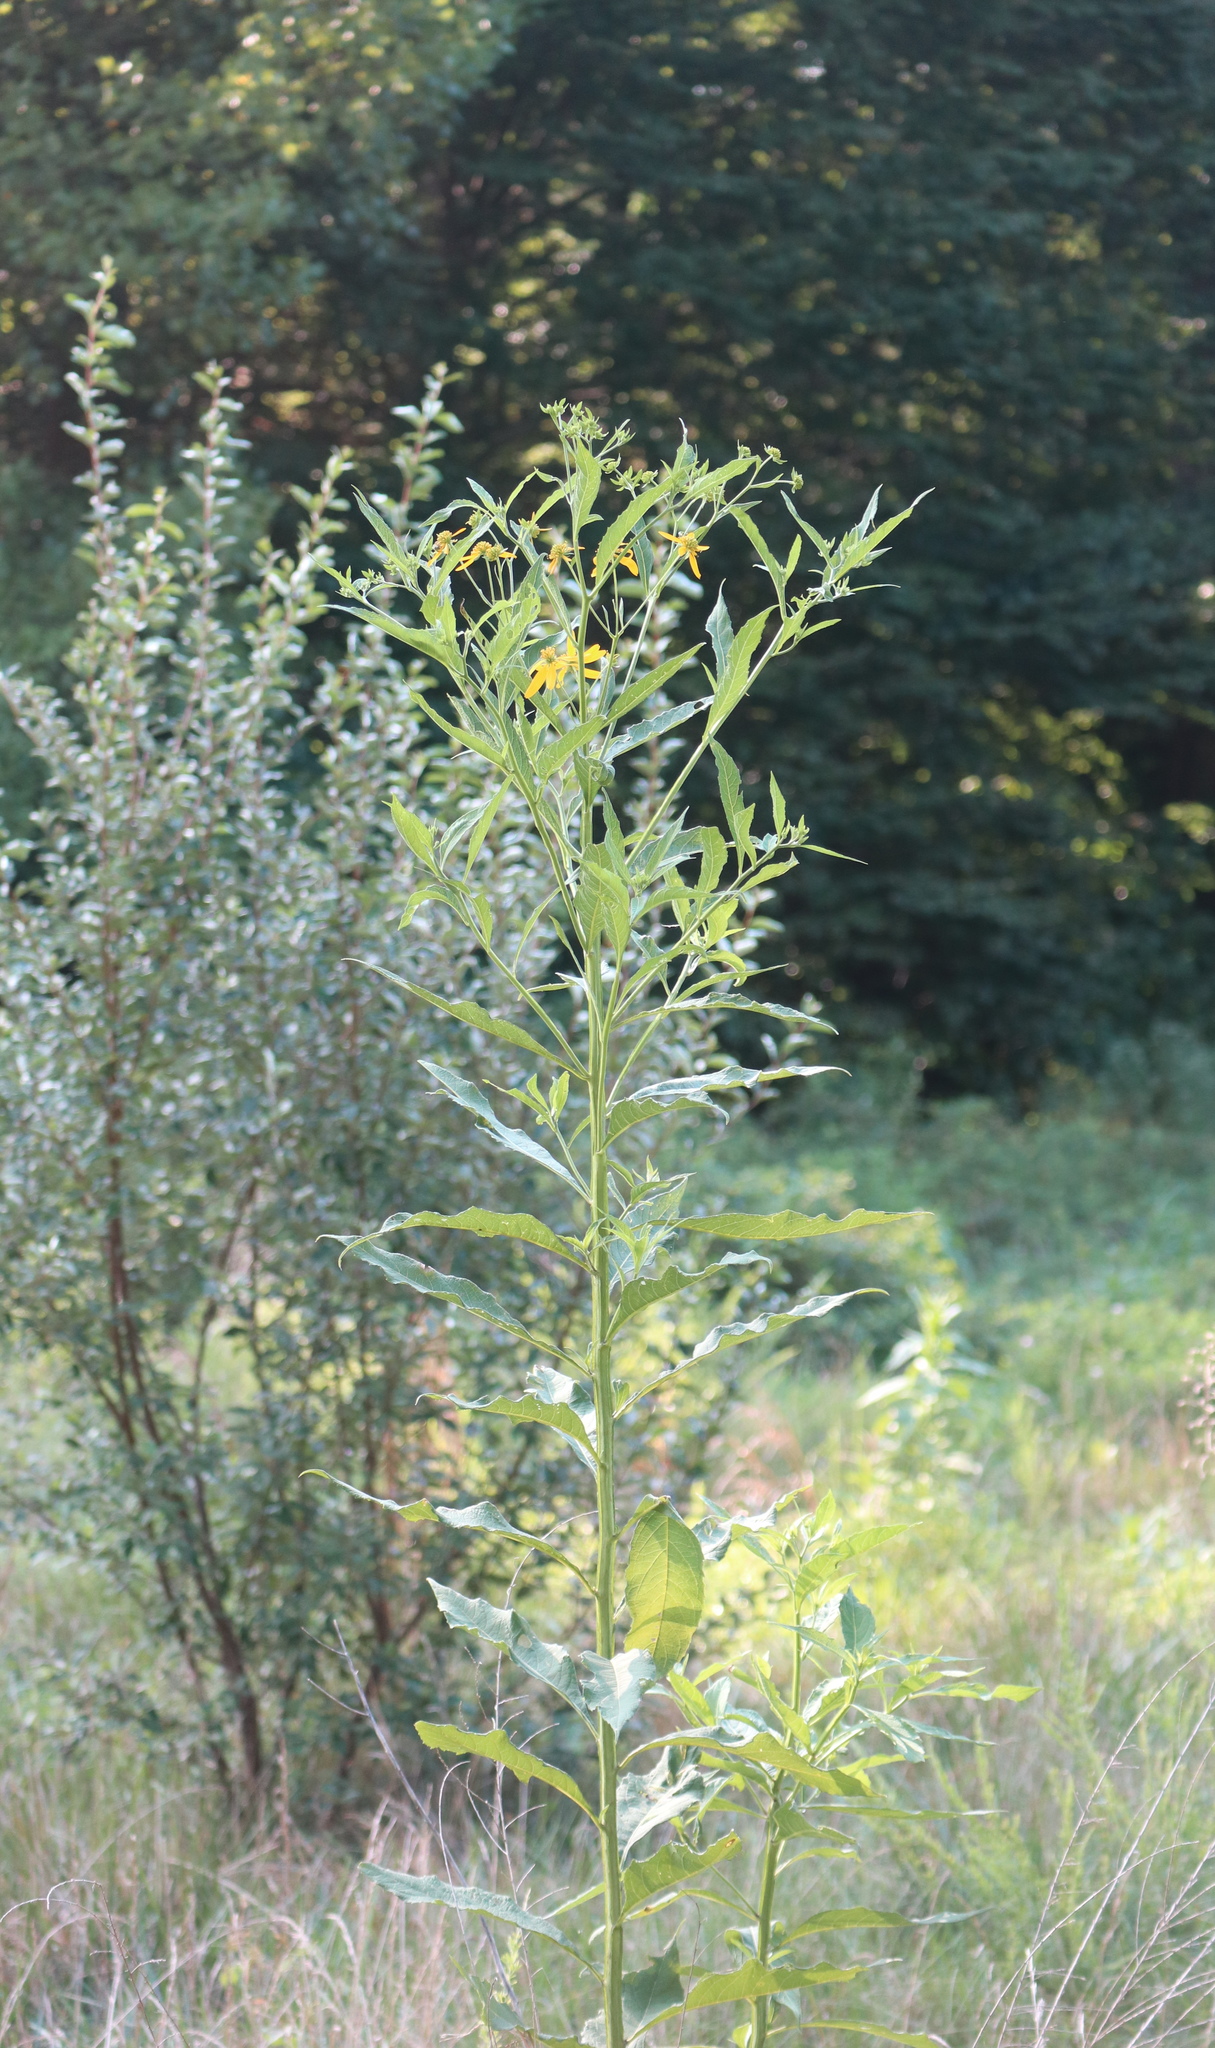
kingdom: Plantae
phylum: Tracheophyta
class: Magnoliopsida
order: Asterales
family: Asteraceae
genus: Verbesina
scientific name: Verbesina alternifolia
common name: Wingstem
